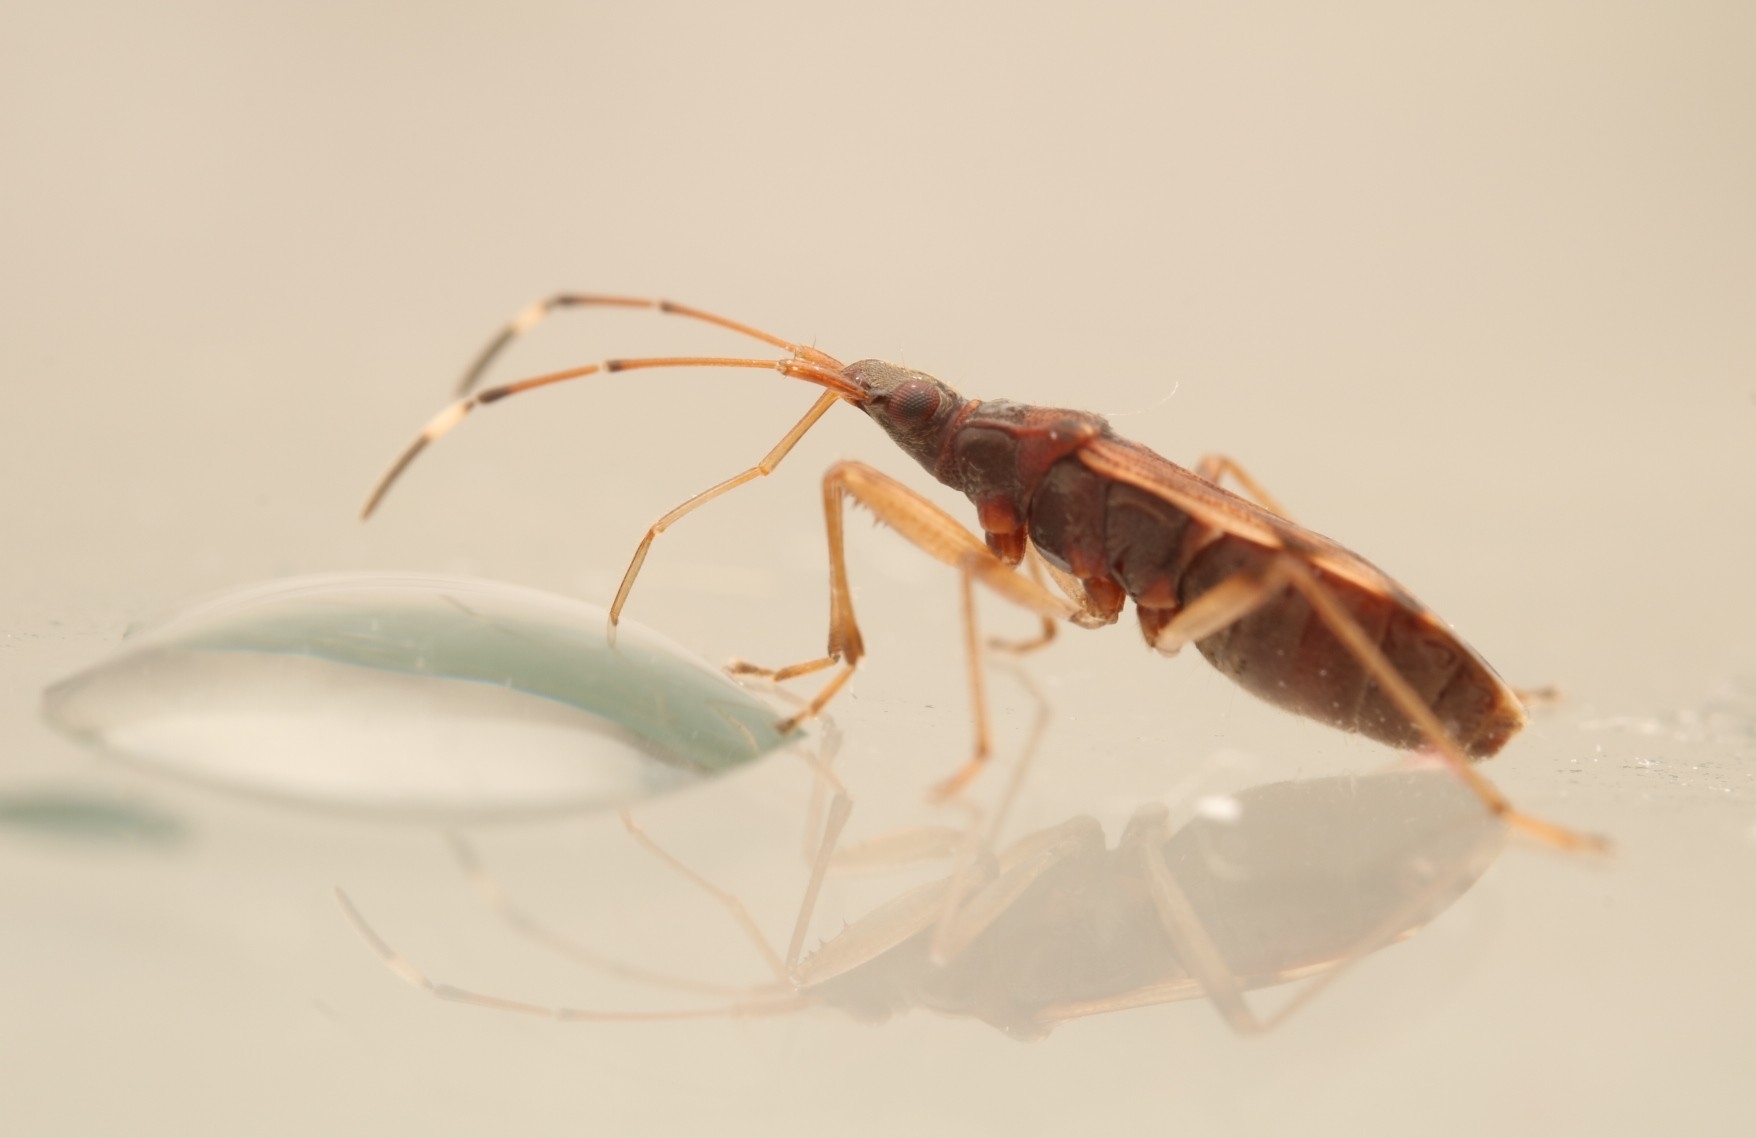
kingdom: Animalia
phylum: Arthropoda
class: Insecta
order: Hemiptera
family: Rhyparochromidae
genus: Ozophora
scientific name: Ozophora picturata
